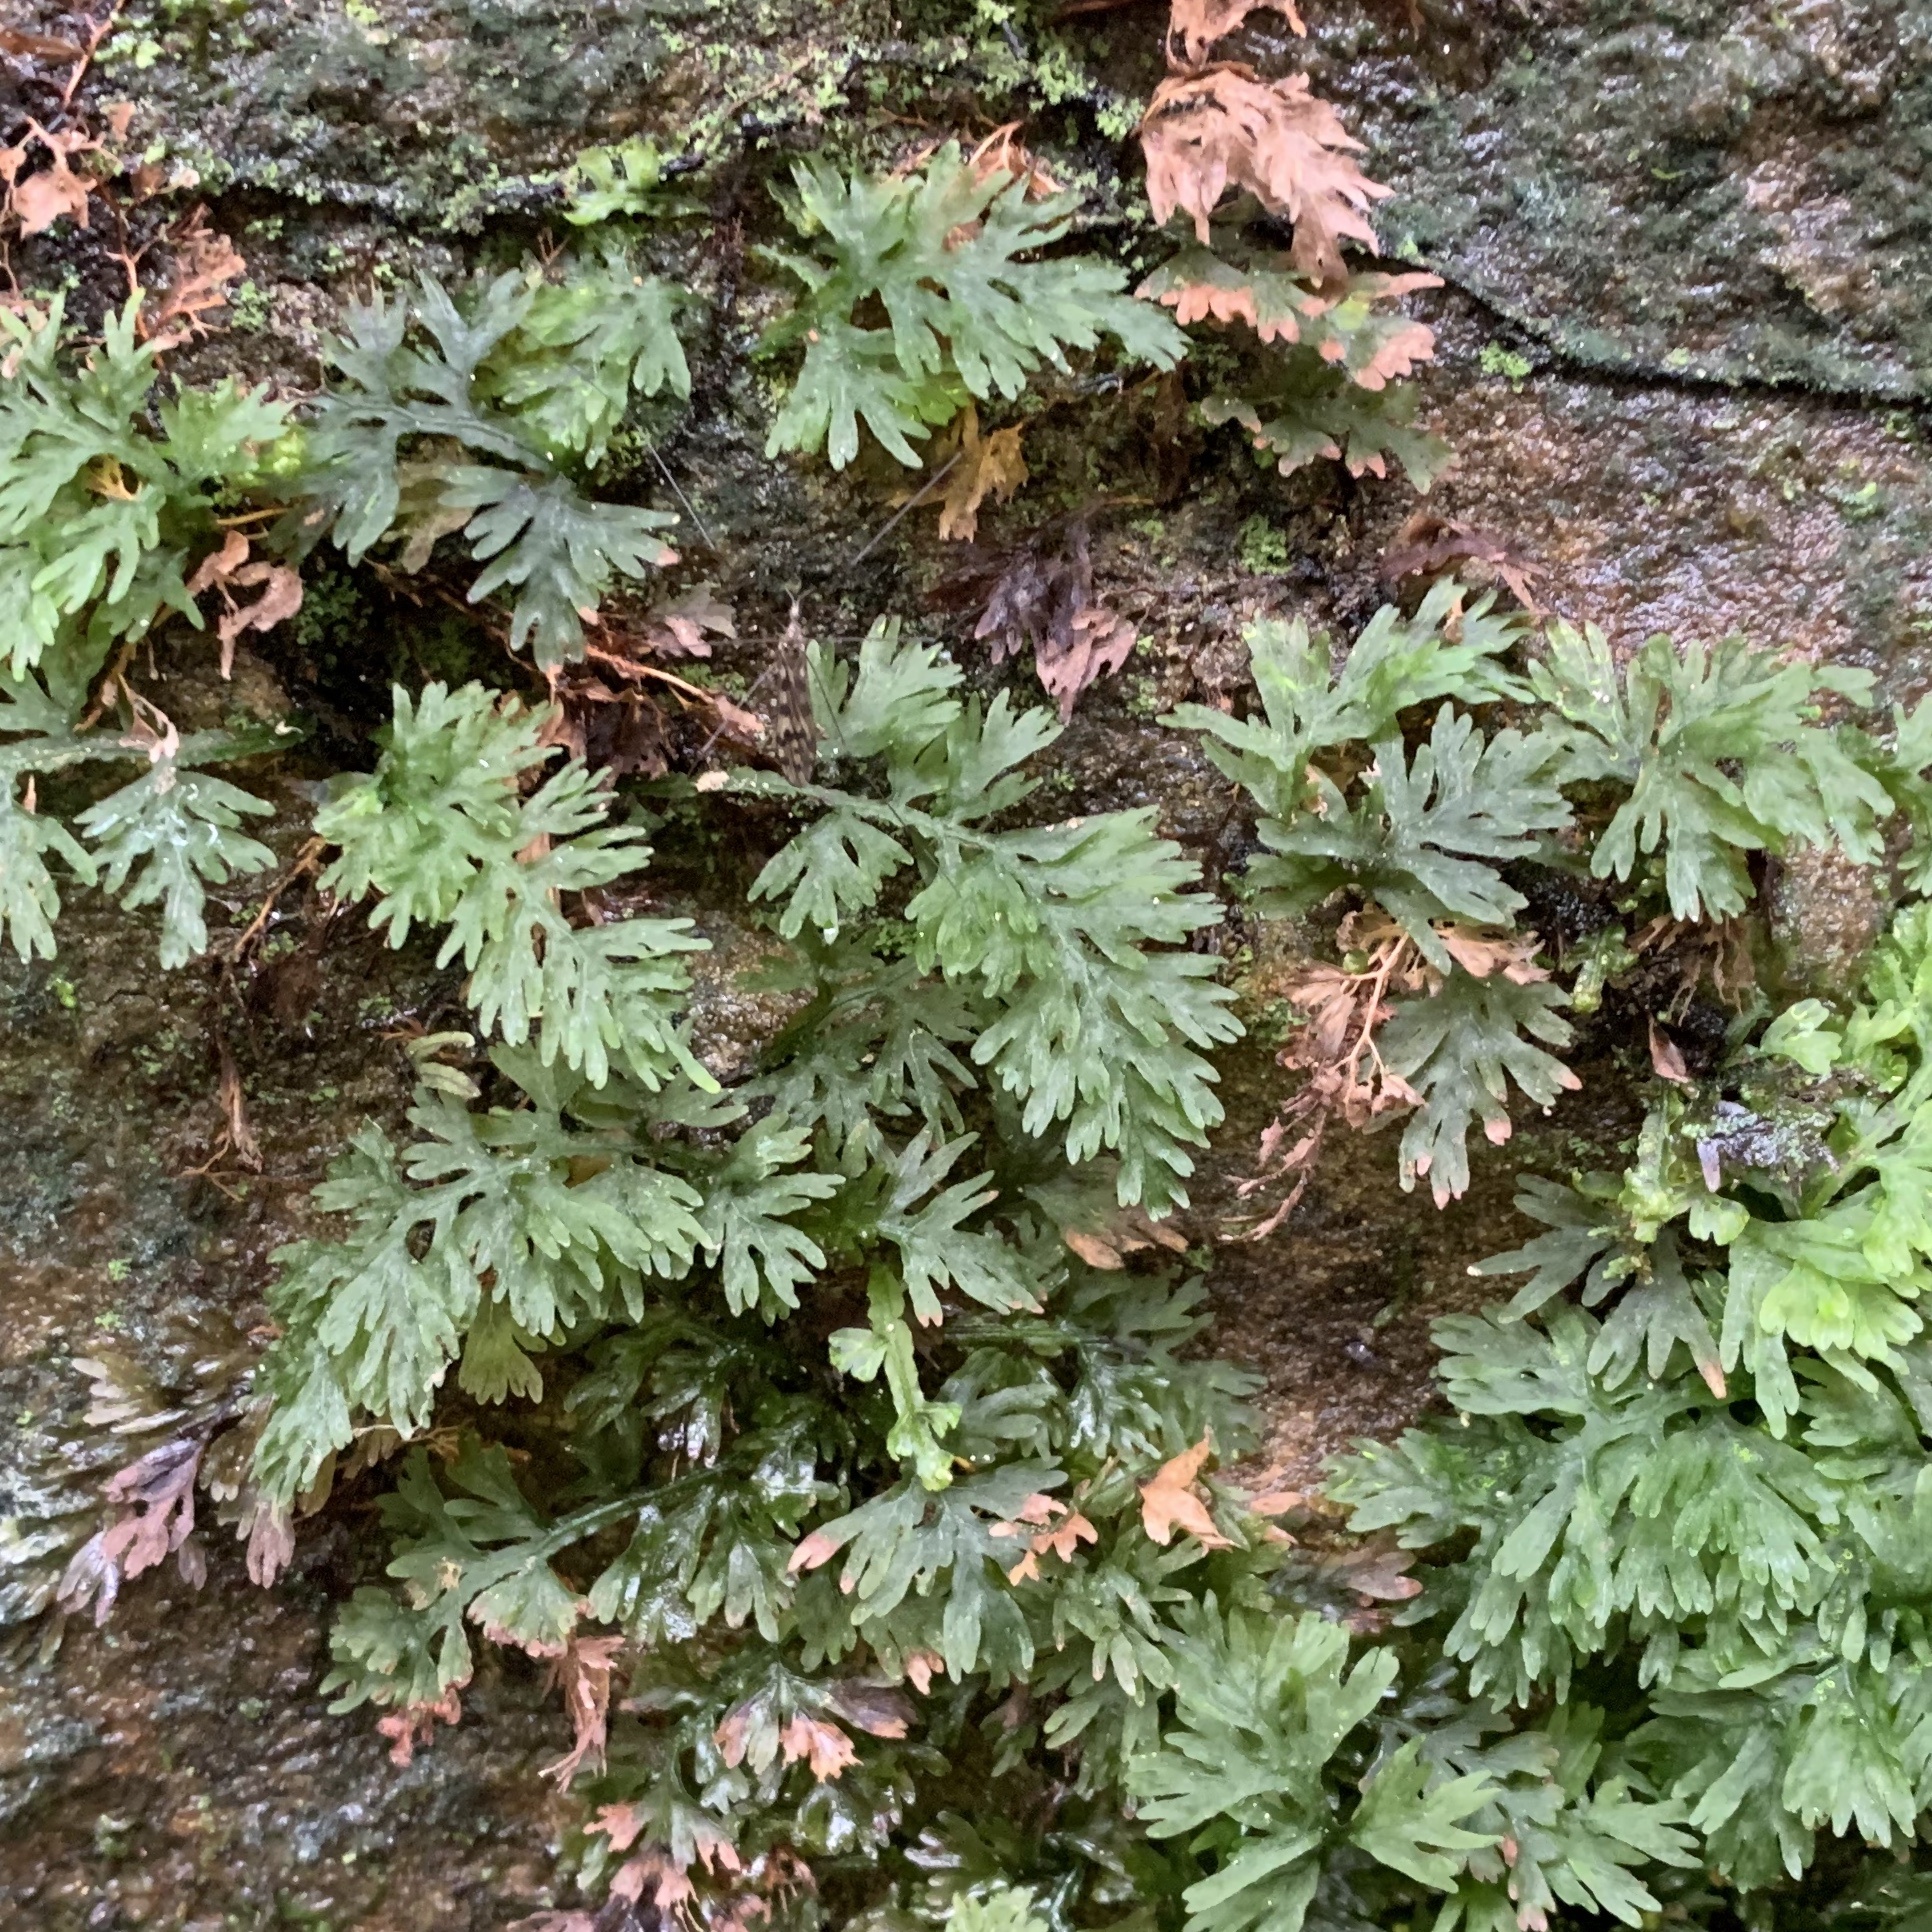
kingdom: Plantae
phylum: Tracheophyta
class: Polypodiopsida
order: Hymenophyllales
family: Hymenophyllaceae
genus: Vandenboschia
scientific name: Vandenboschia boschiana
